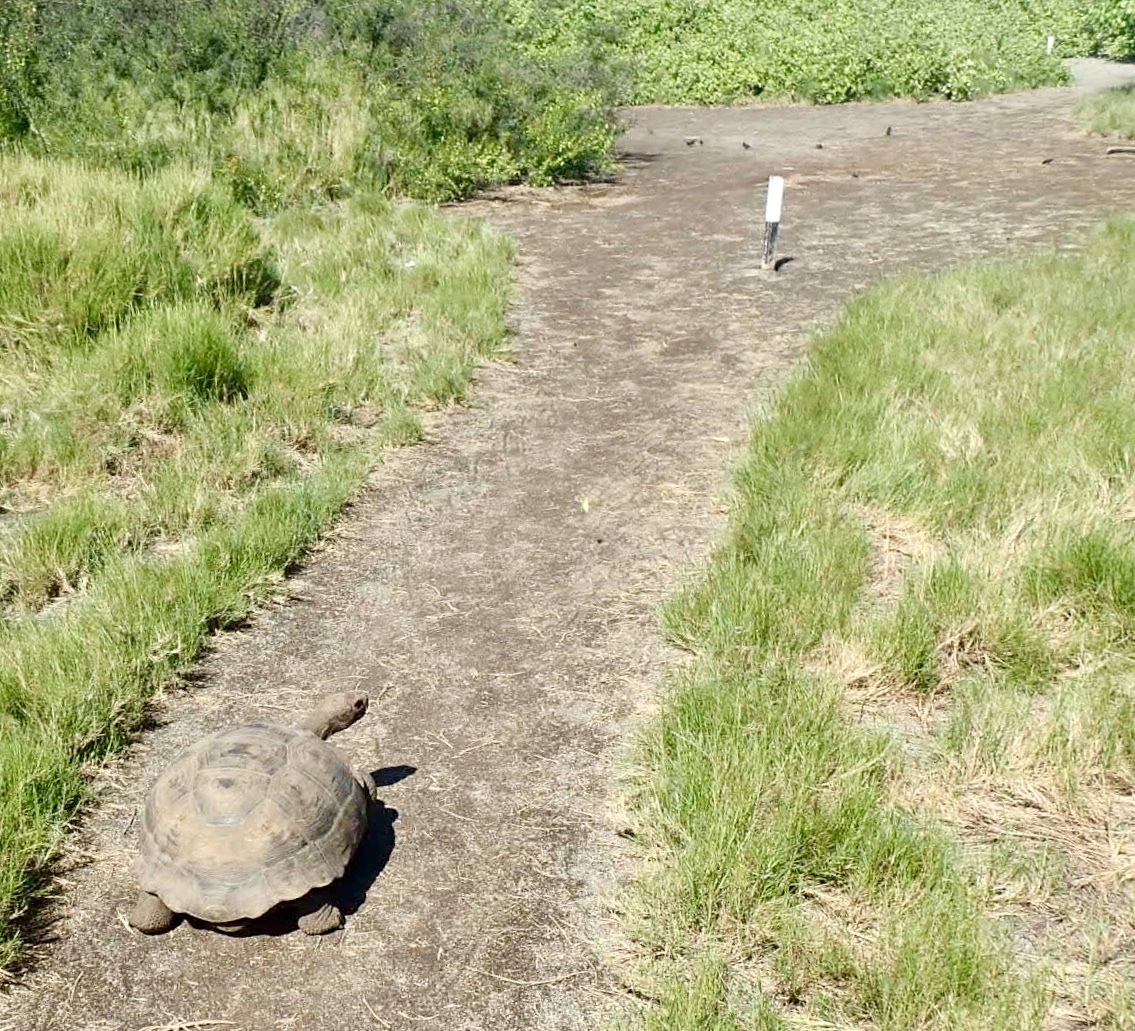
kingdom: Animalia
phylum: Chordata
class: Testudines
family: Testudinidae
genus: Chelonoidis
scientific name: Chelonoidis vandenburghi
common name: Alcedo volcano giant tortoise
